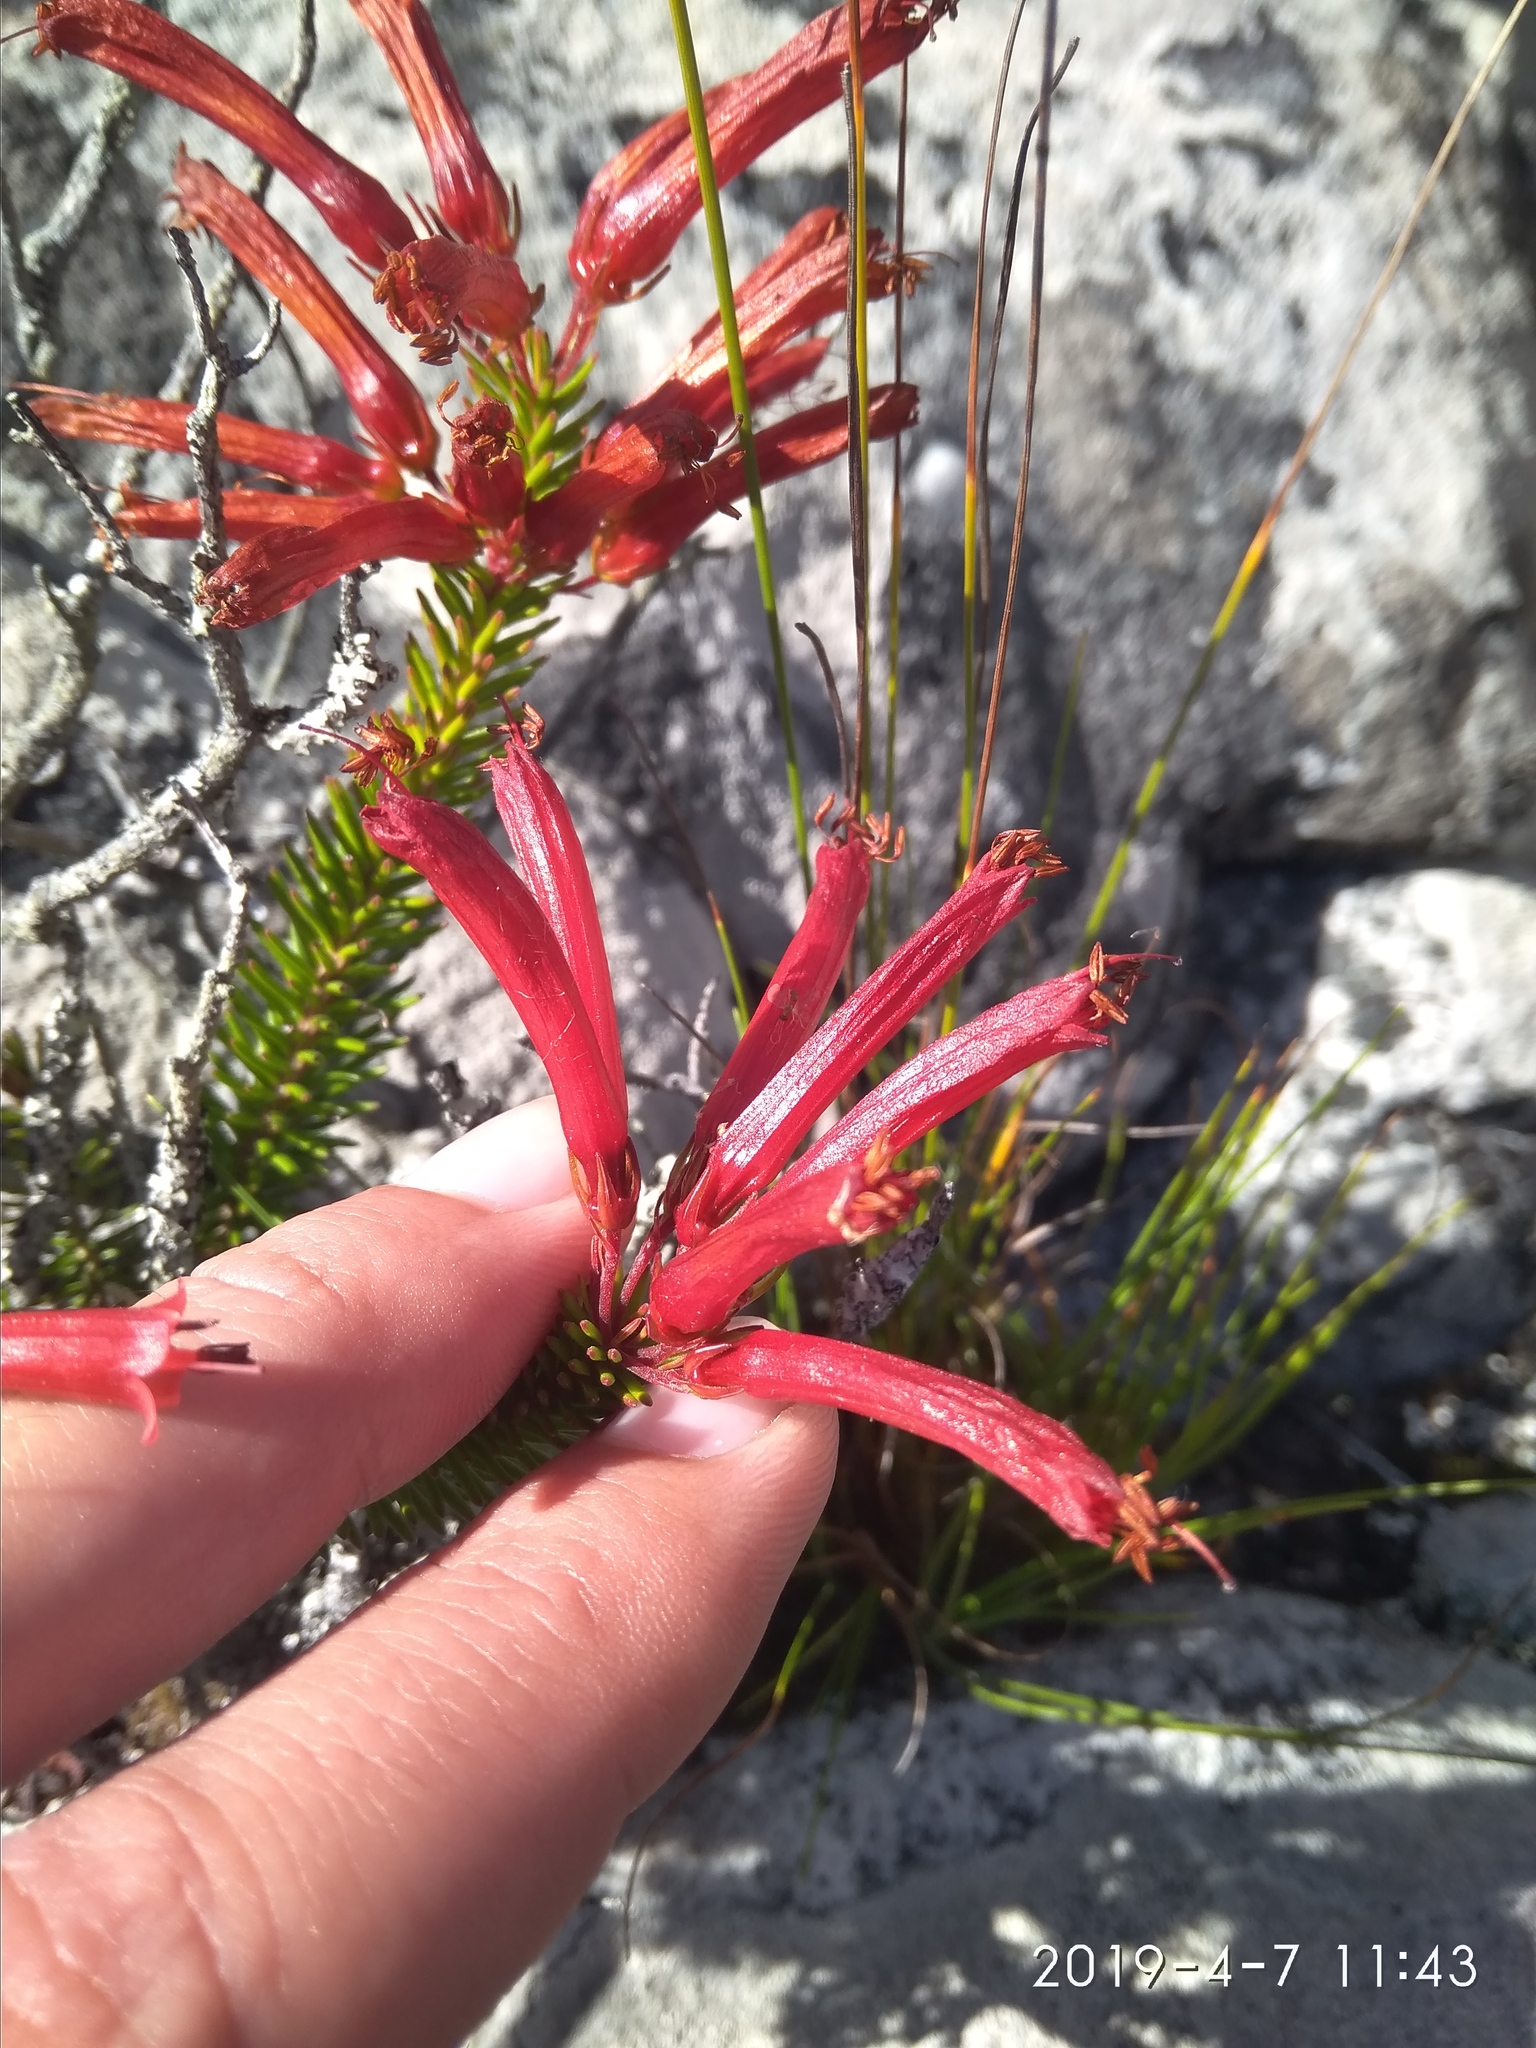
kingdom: Plantae
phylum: Tracheophyta
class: Magnoliopsida
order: Ericales
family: Ericaceae
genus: Erica
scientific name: Erica nevillei
